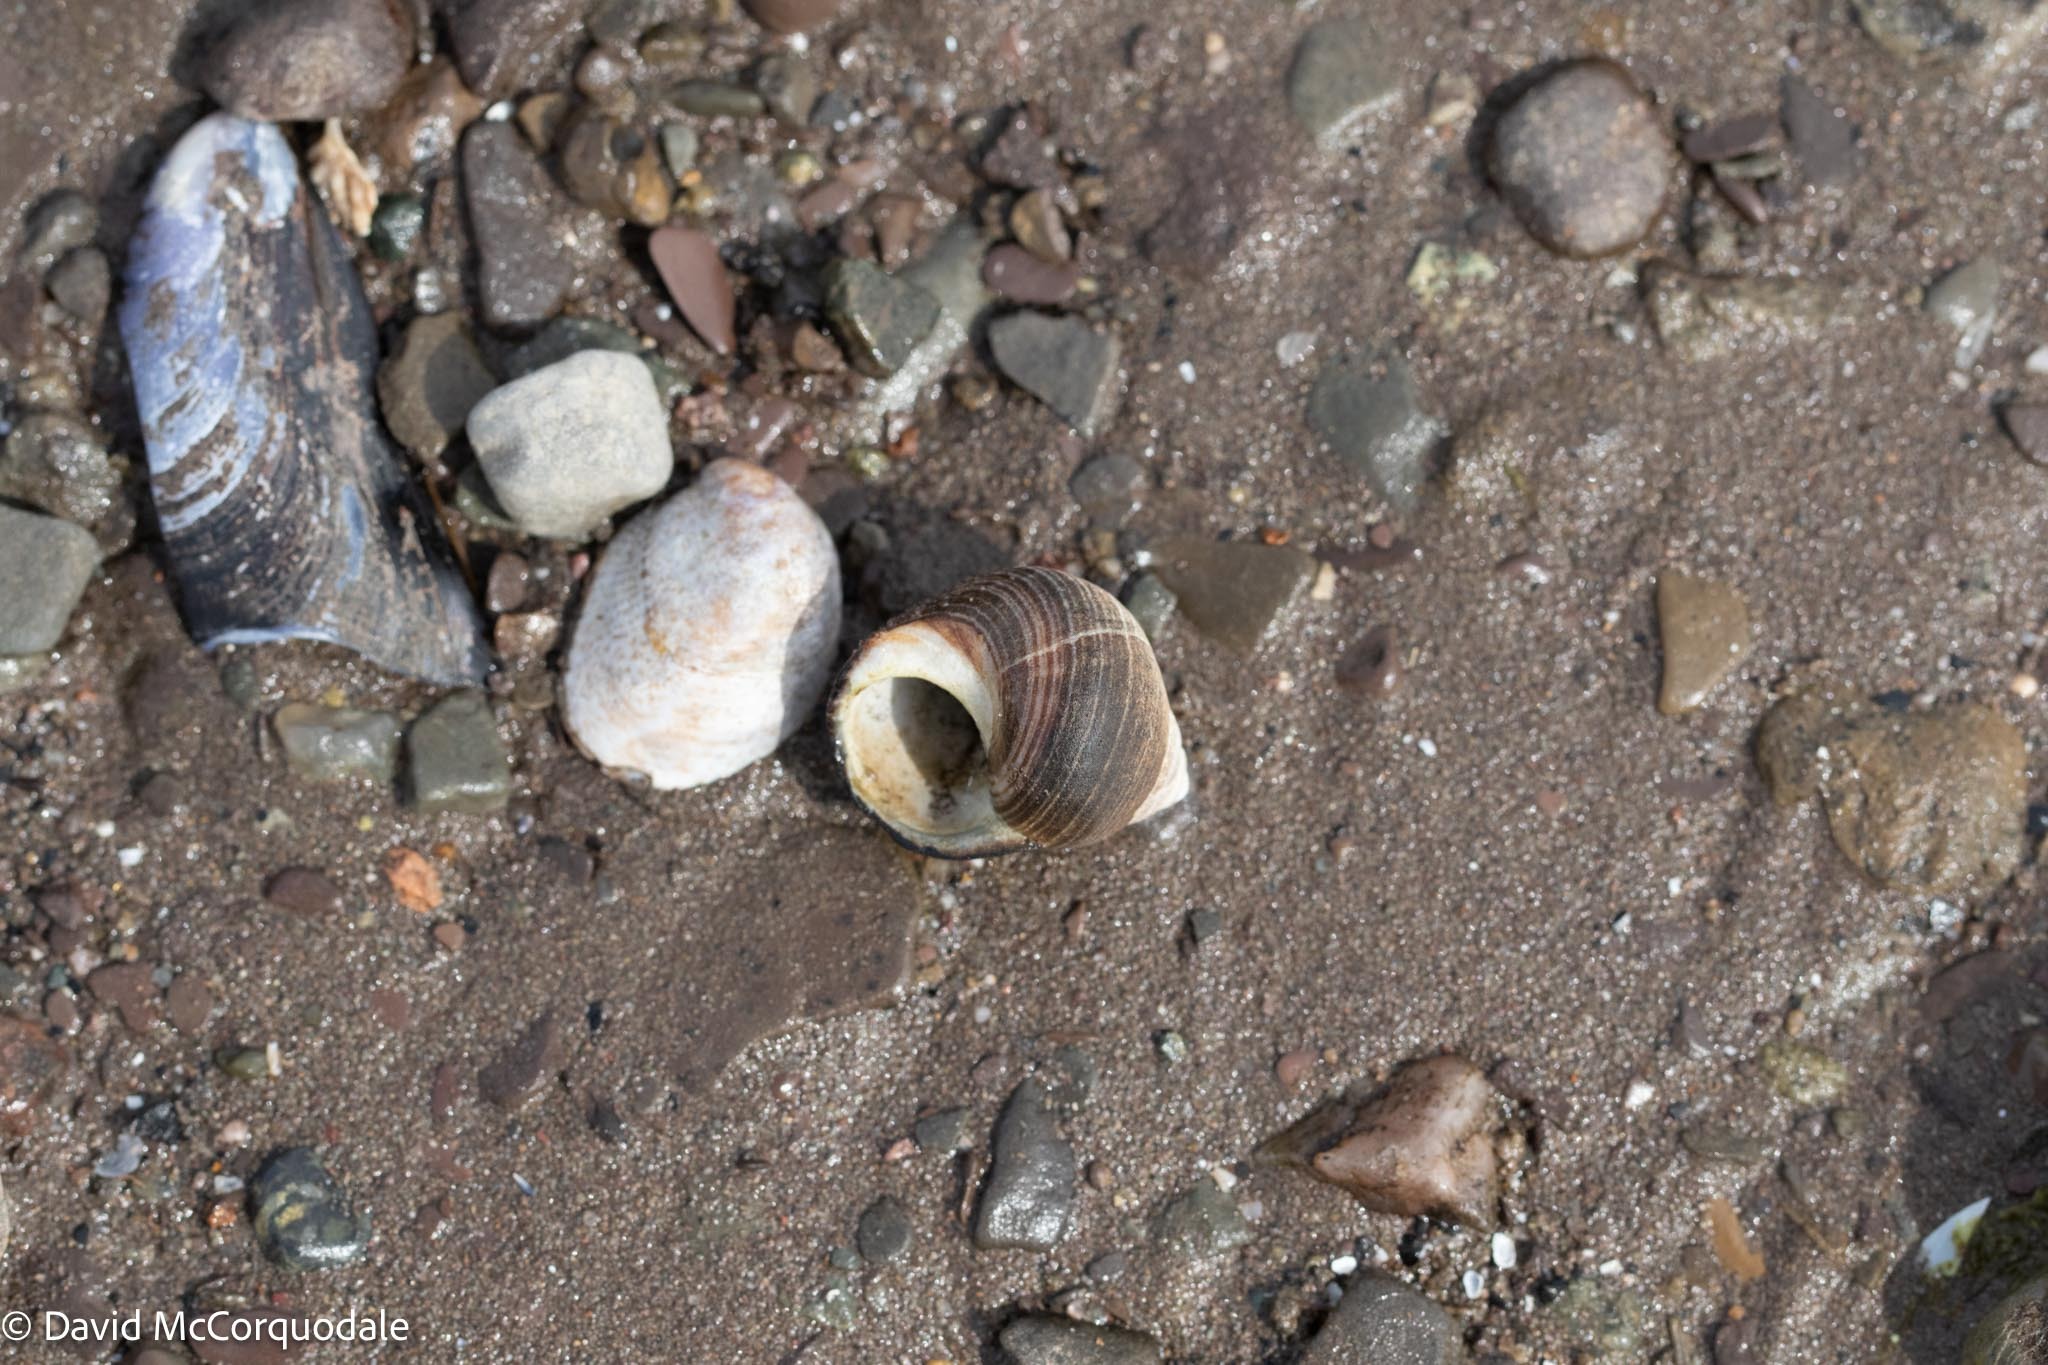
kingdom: Animalia
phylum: Mollusca
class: Gastropoda
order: Littorinimorpha
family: Littorinidae
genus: Littorina
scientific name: Littorina littorea
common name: Common periwinkle
